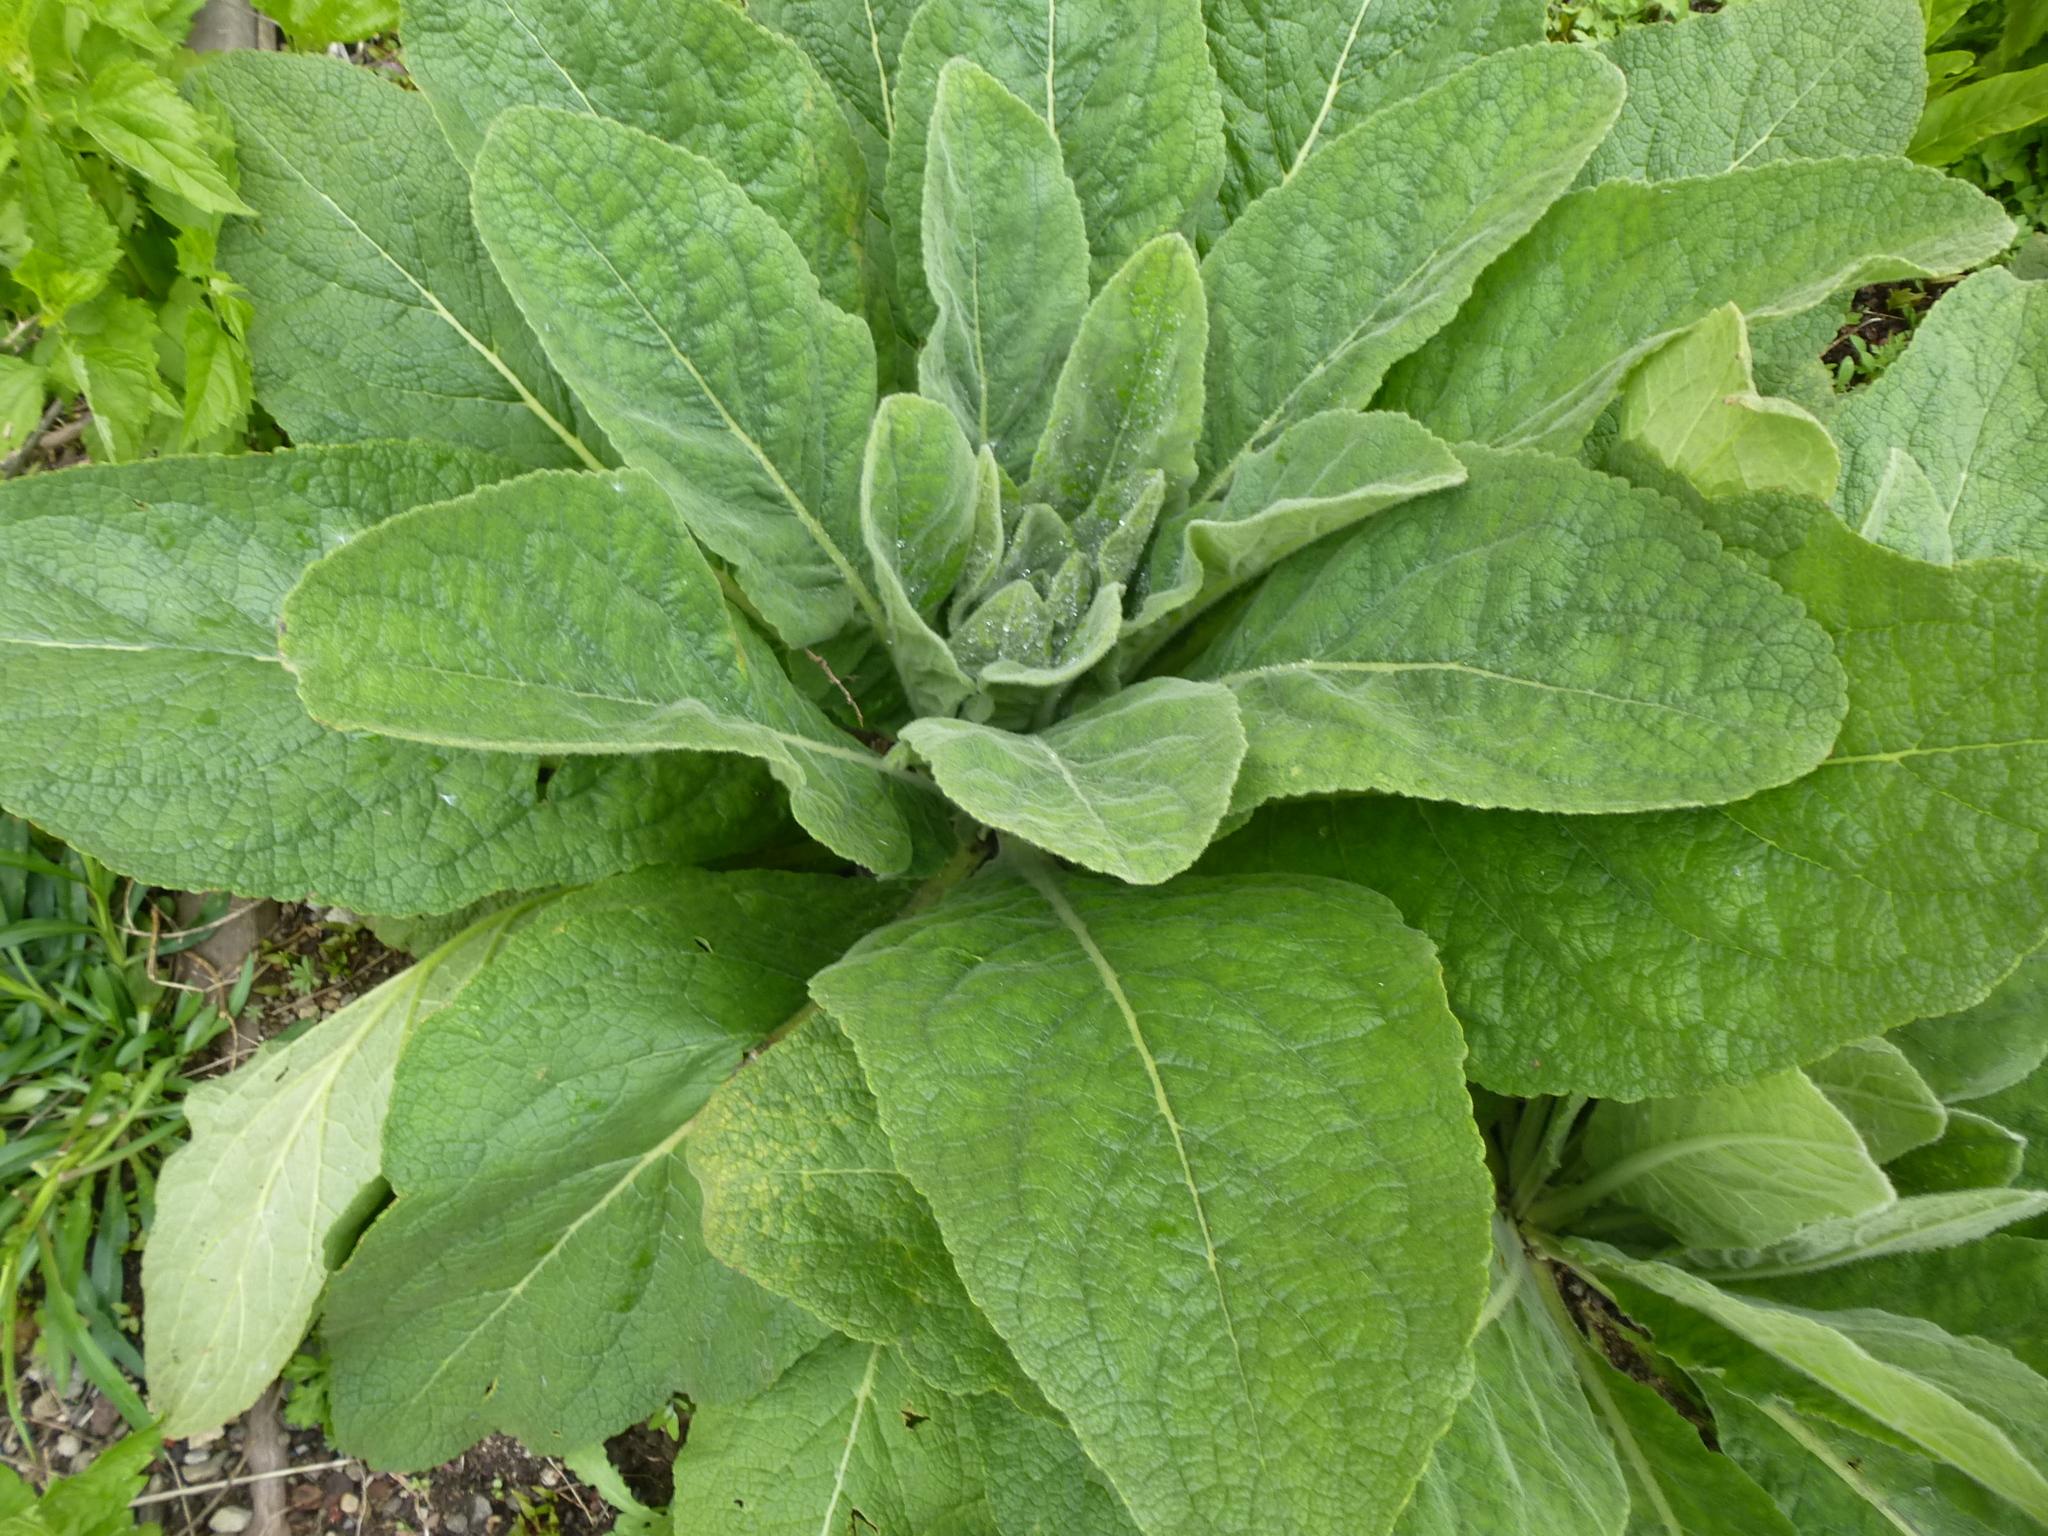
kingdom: Plantae
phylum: Tracheophyta
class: Magnoliopsida
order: Lamiales
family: Scrophulariaceae
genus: Verbascum
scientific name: Verbascum thapsus
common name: Common mullein
